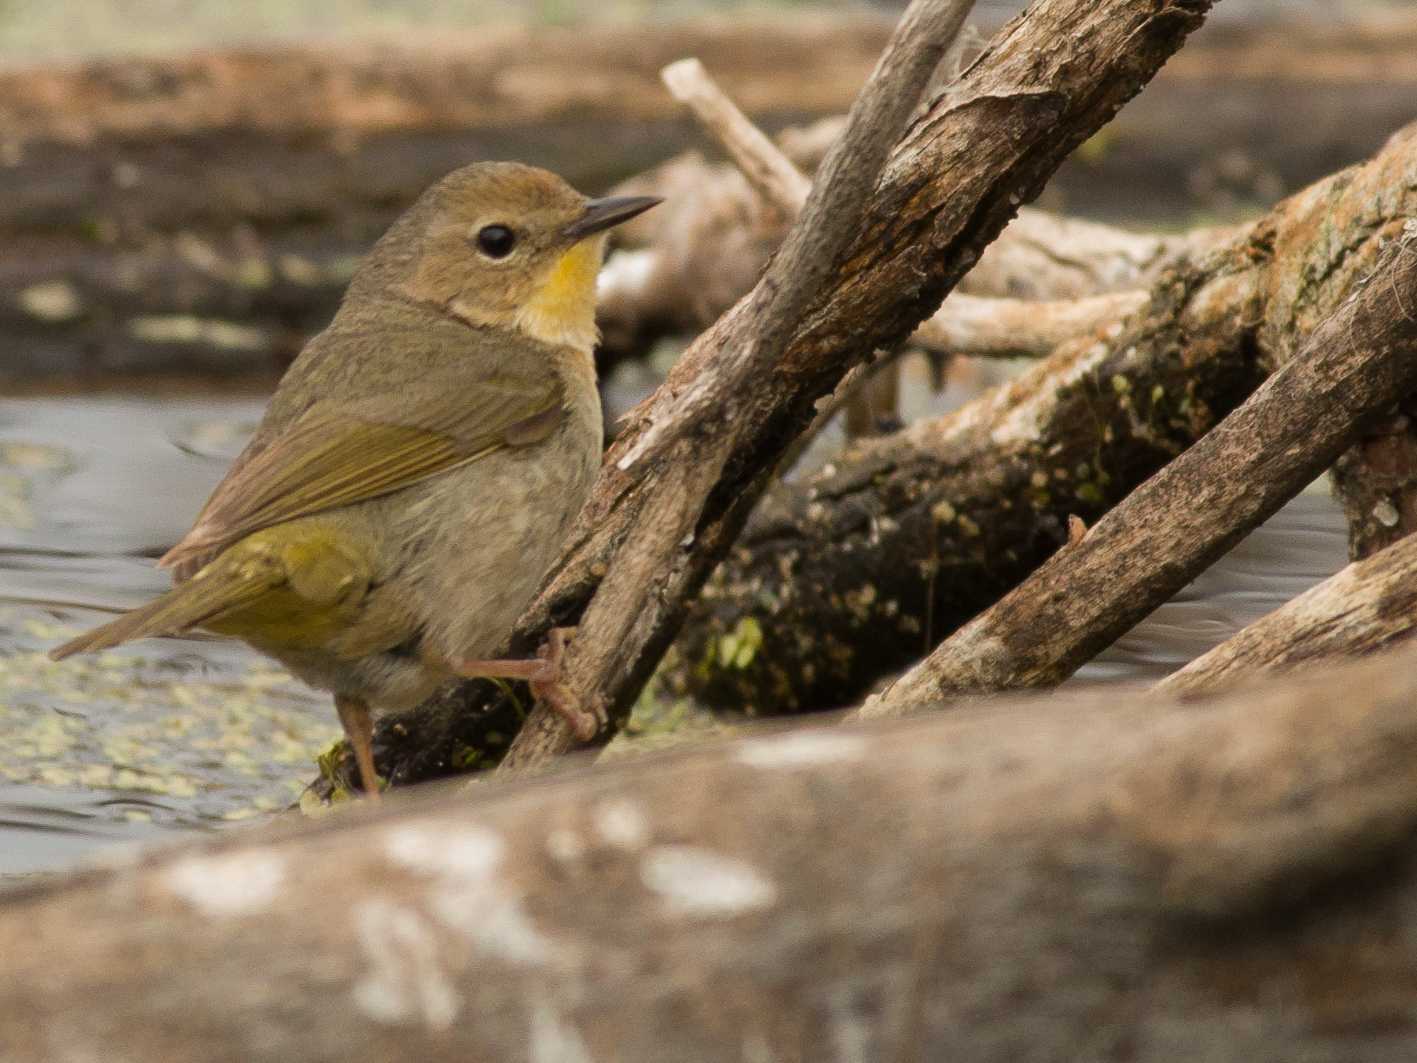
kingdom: Animalia
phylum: Chordata
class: Aves
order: Passeriformes
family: Parulidae
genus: Geothlypis
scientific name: Geothlypis trichas
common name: Common yellowthroat
